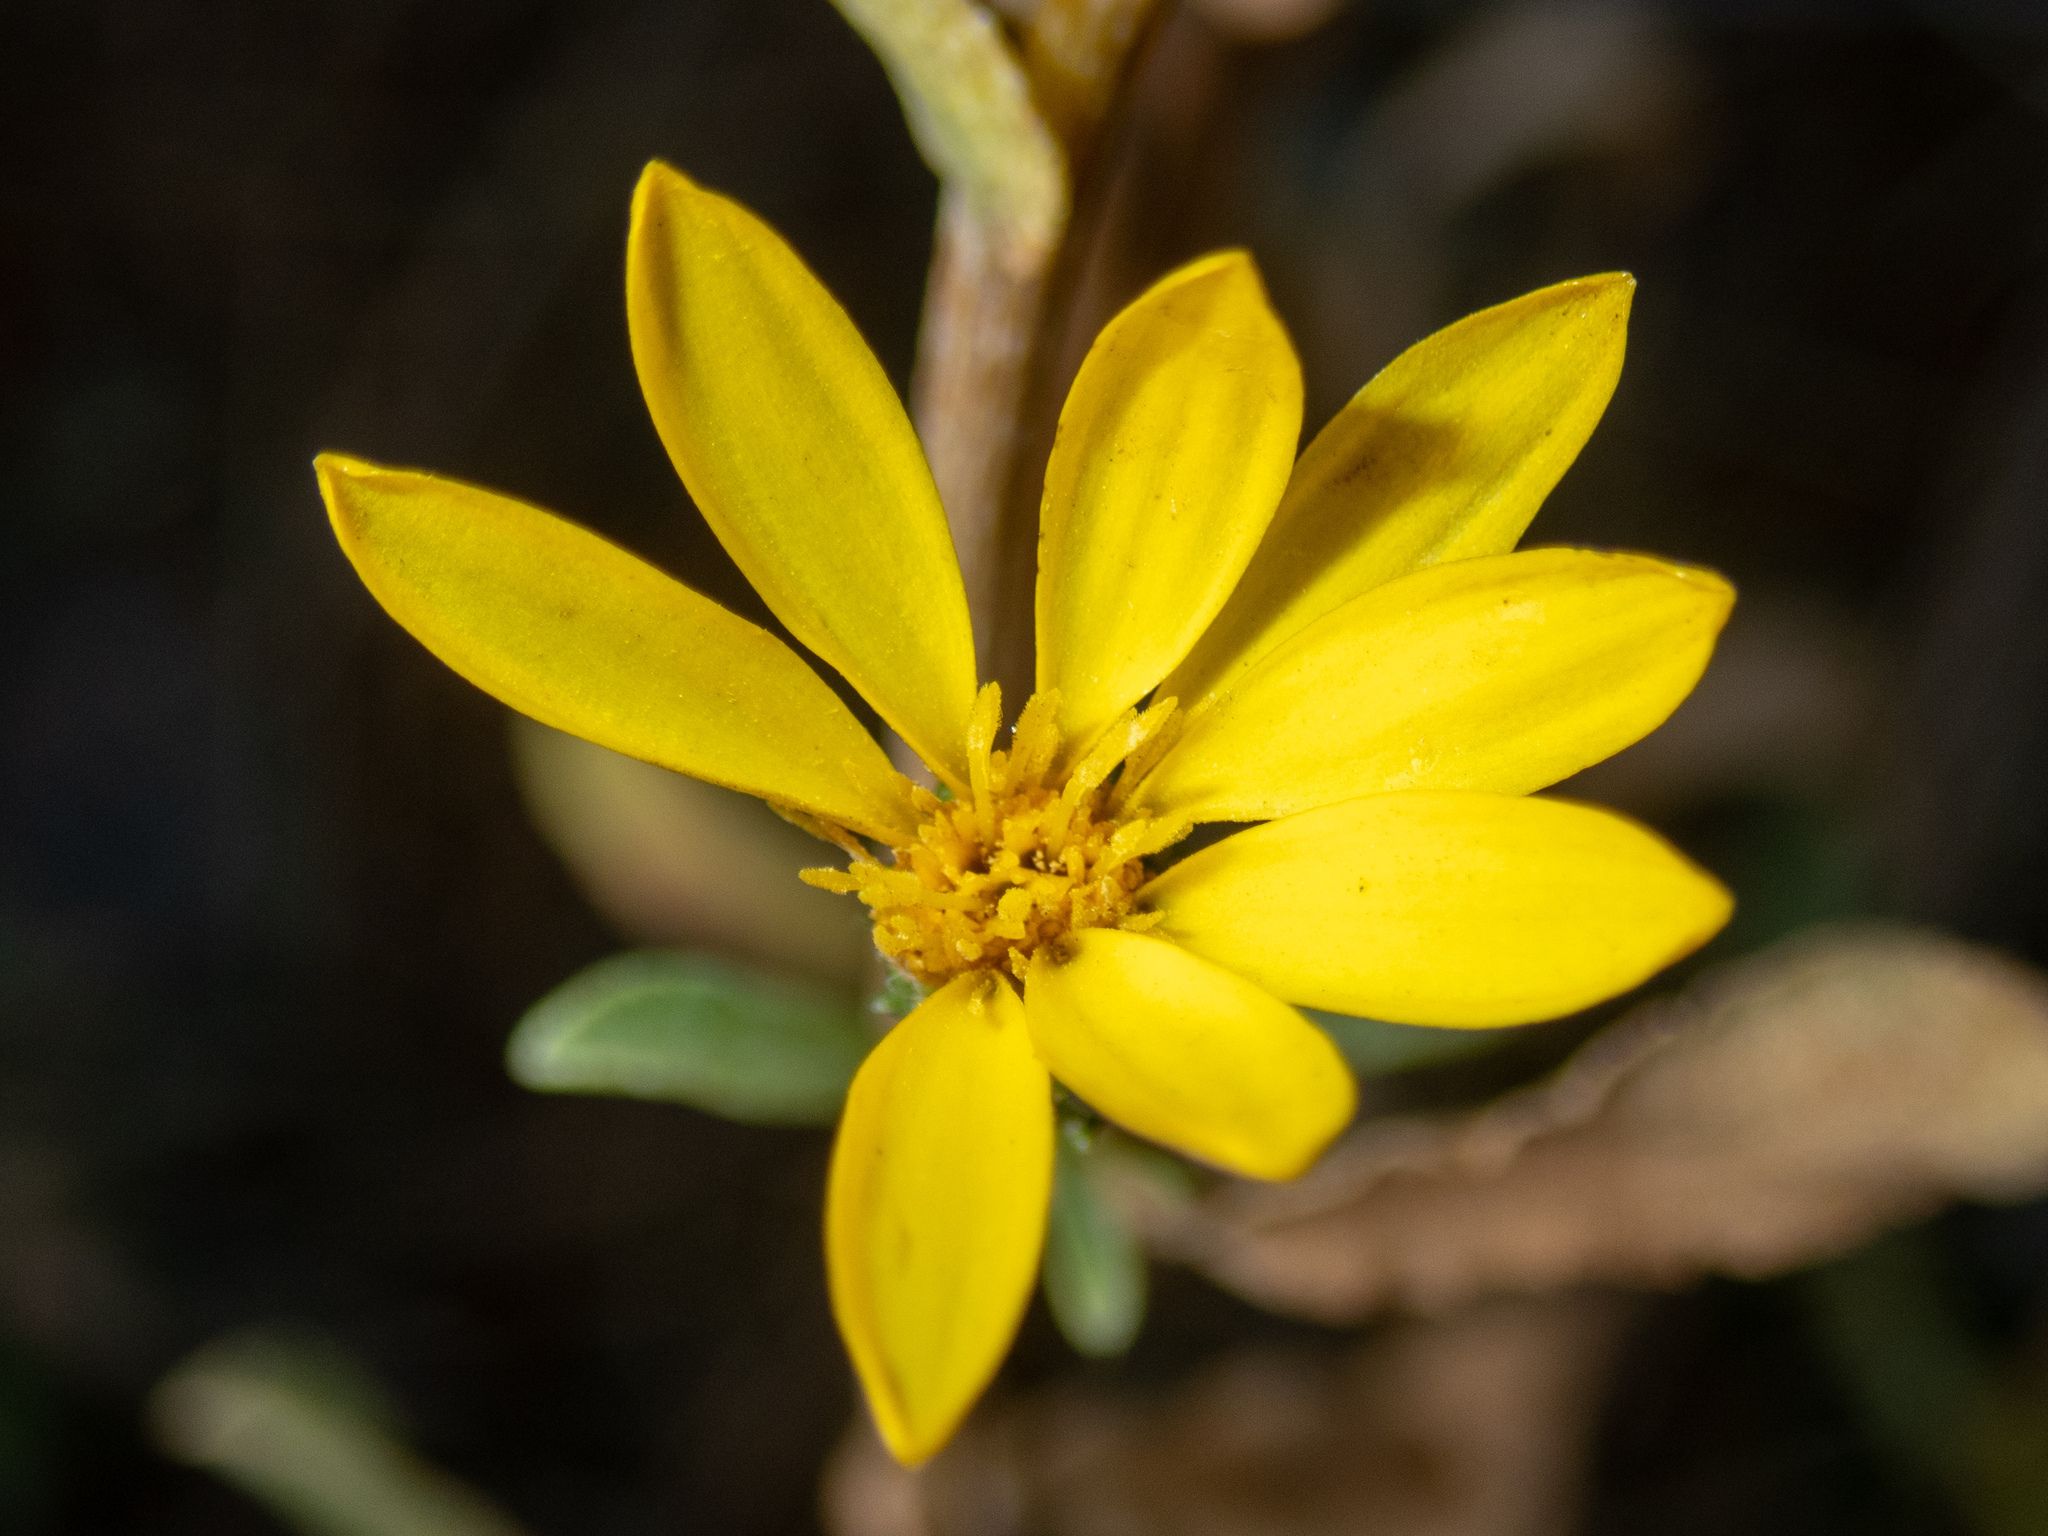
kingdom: Plantae
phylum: Tracheophyta
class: Magnoliopsida
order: Asterales
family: Asteraceae
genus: Grindelia
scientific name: Grindelia hirsutula
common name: Hairy gumweed
